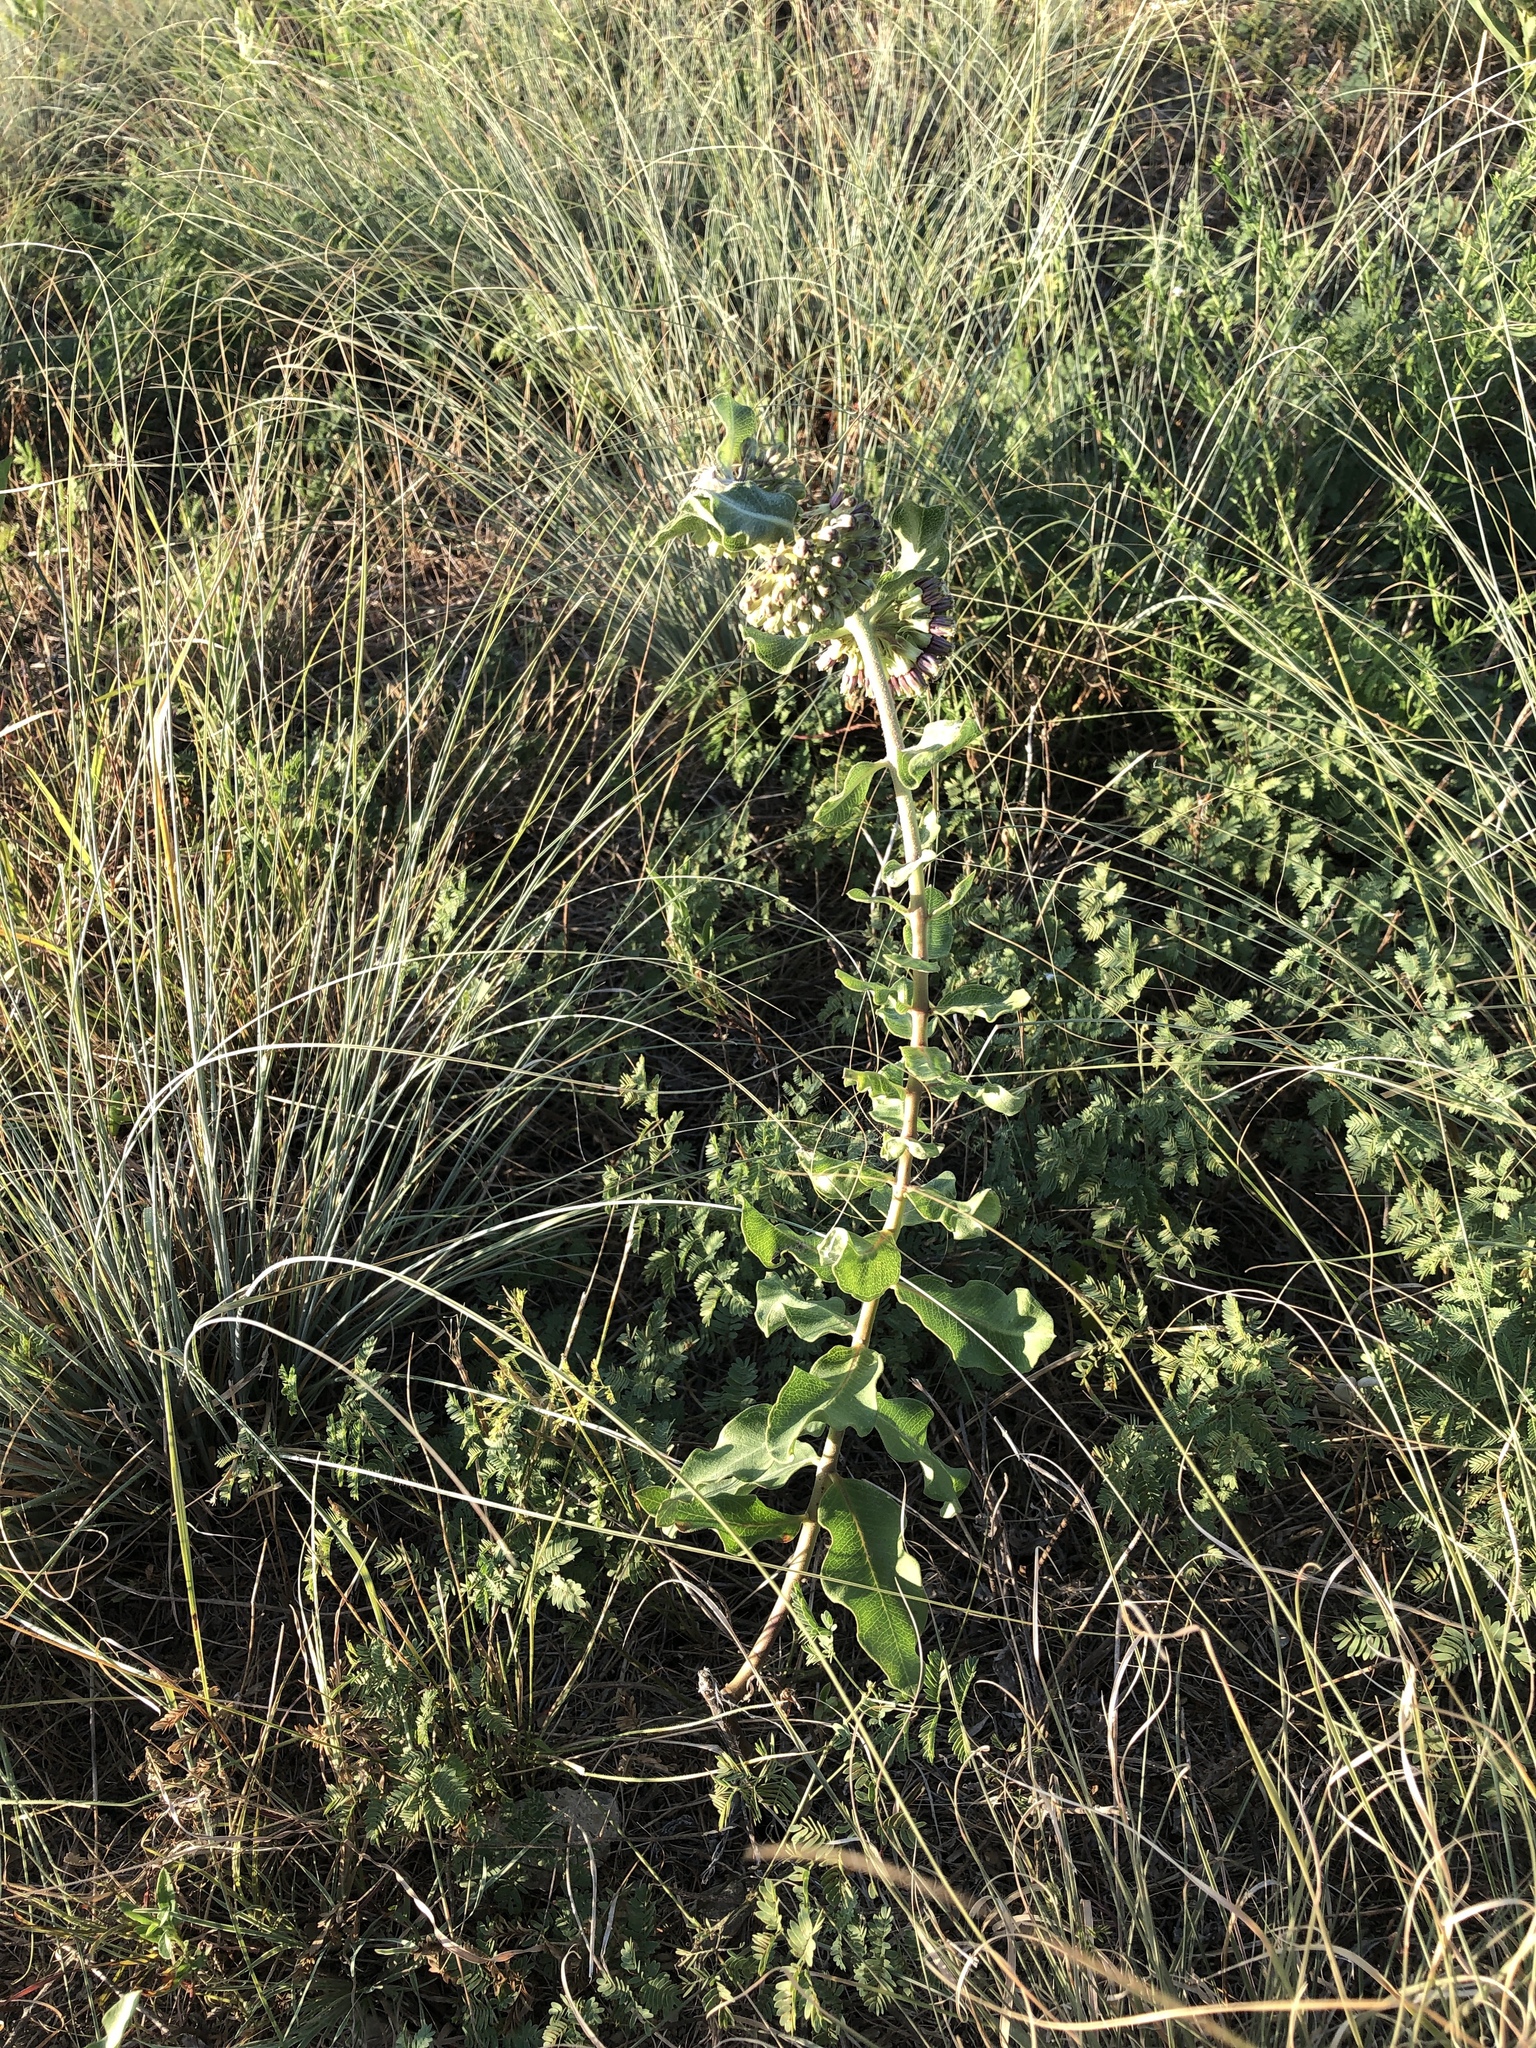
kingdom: Plantae
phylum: Tracheophyta
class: Magnoliopsida
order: Gentianales
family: Apocynaceae
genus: Asclepias
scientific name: Asclepias viridiflora
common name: Green comet milkweed
